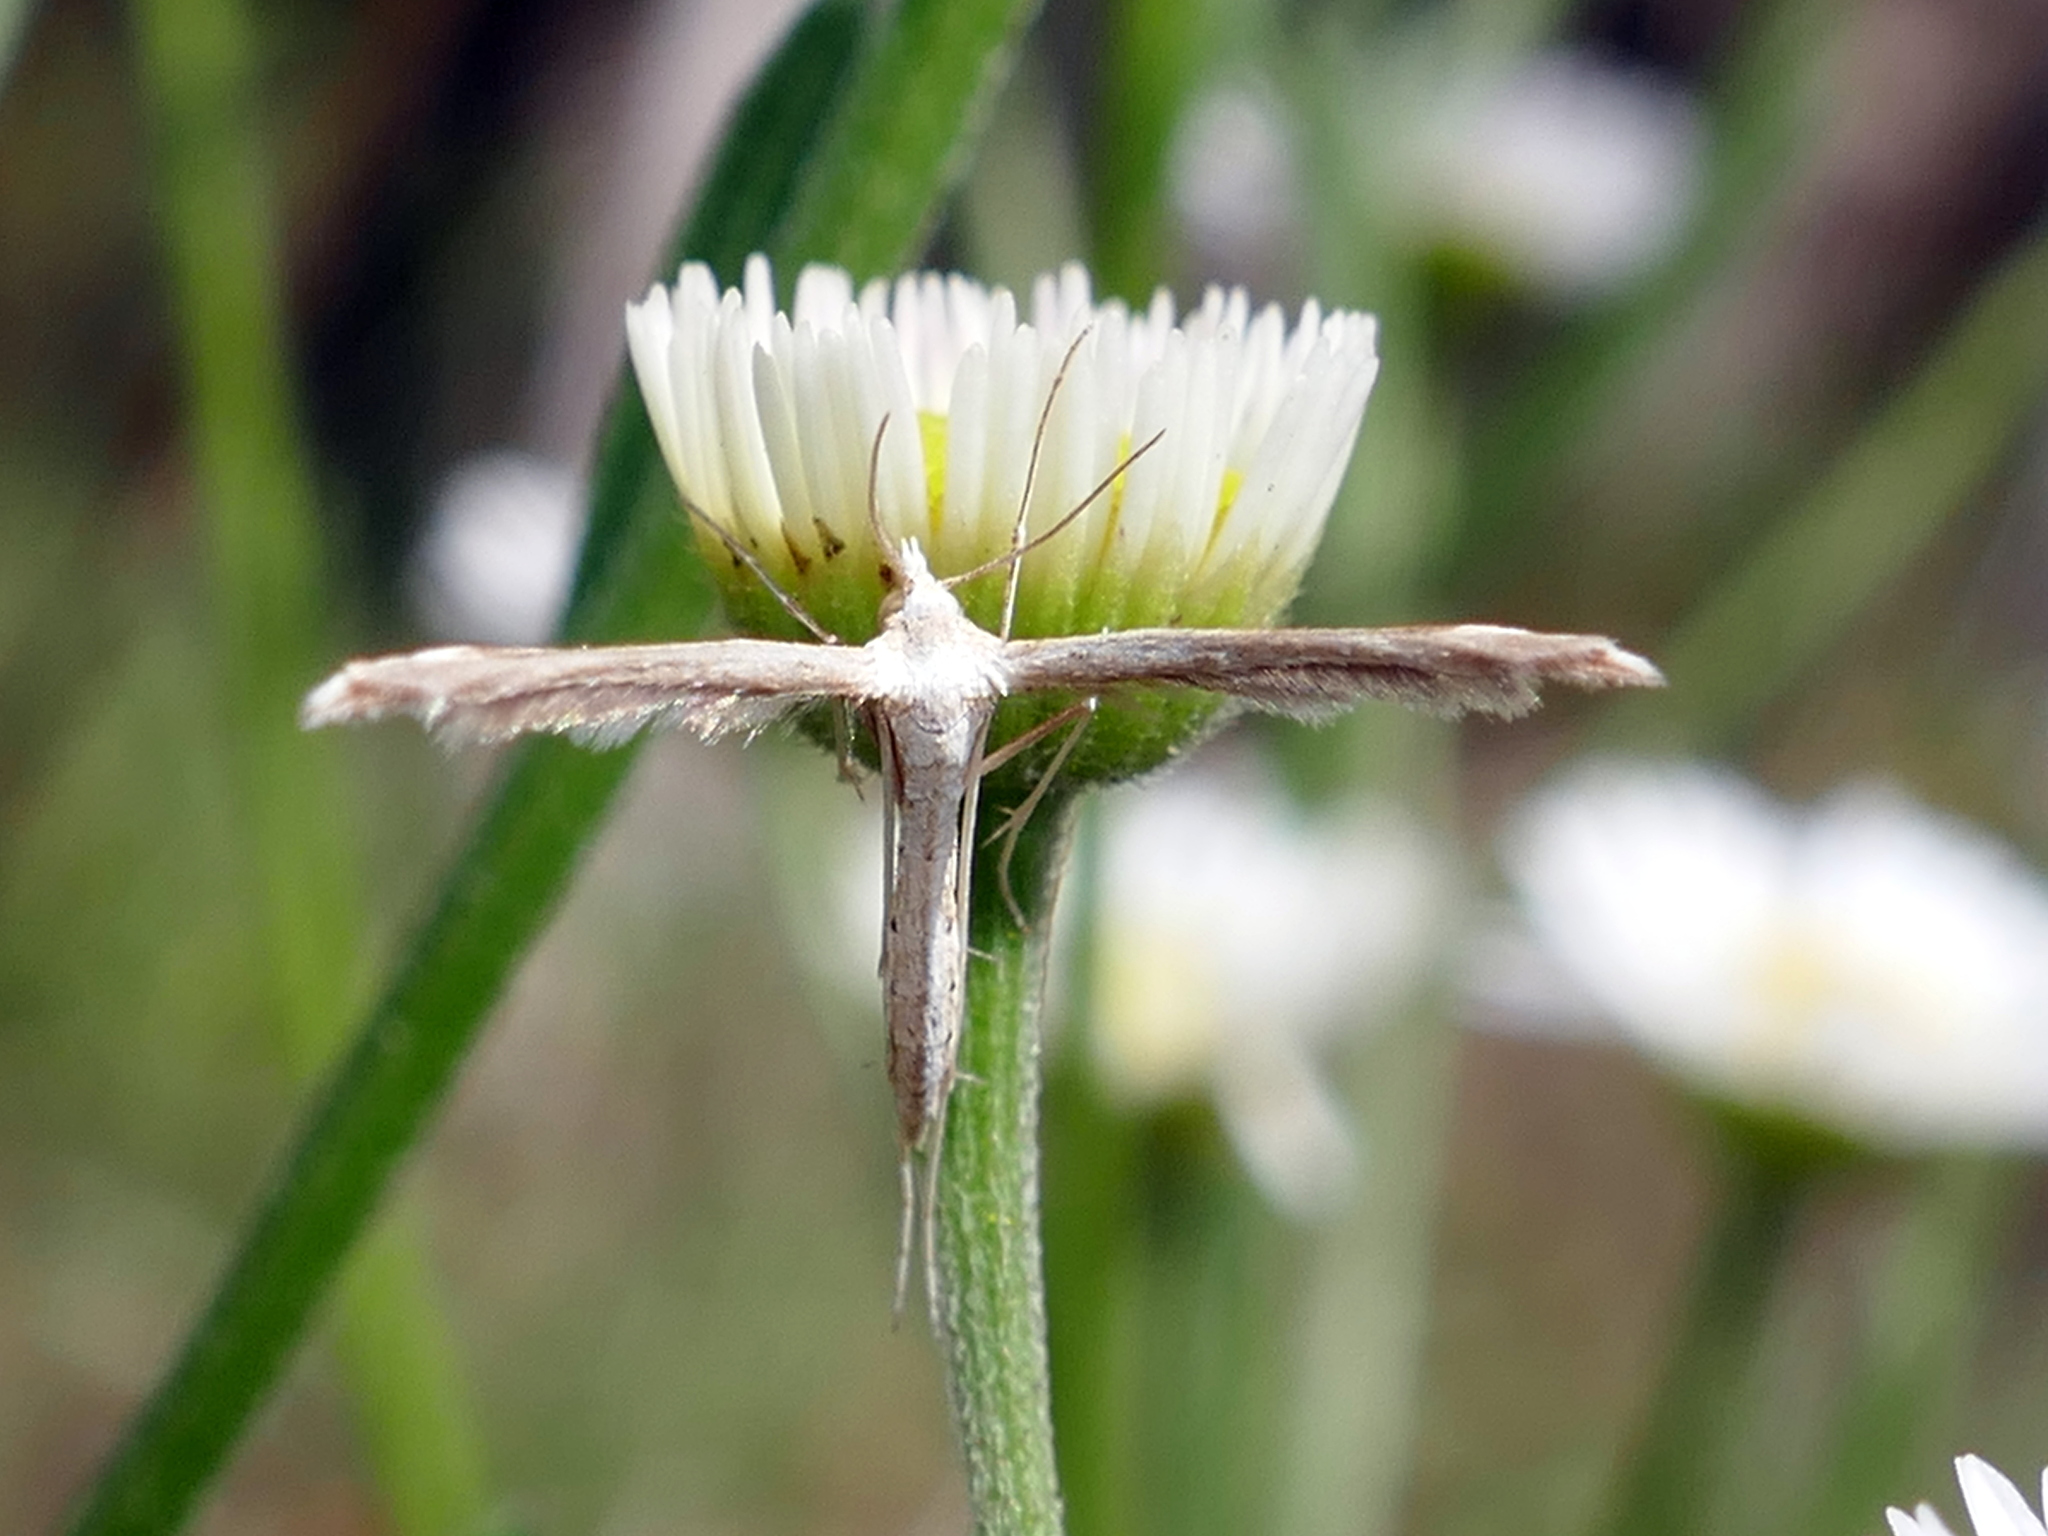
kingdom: Animalia
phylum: Arthropoda
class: Insecta
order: Lepidoptera
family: Pterophoridae
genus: Lioptilodes
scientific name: Lioptilodes albistriolatus
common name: Moth
